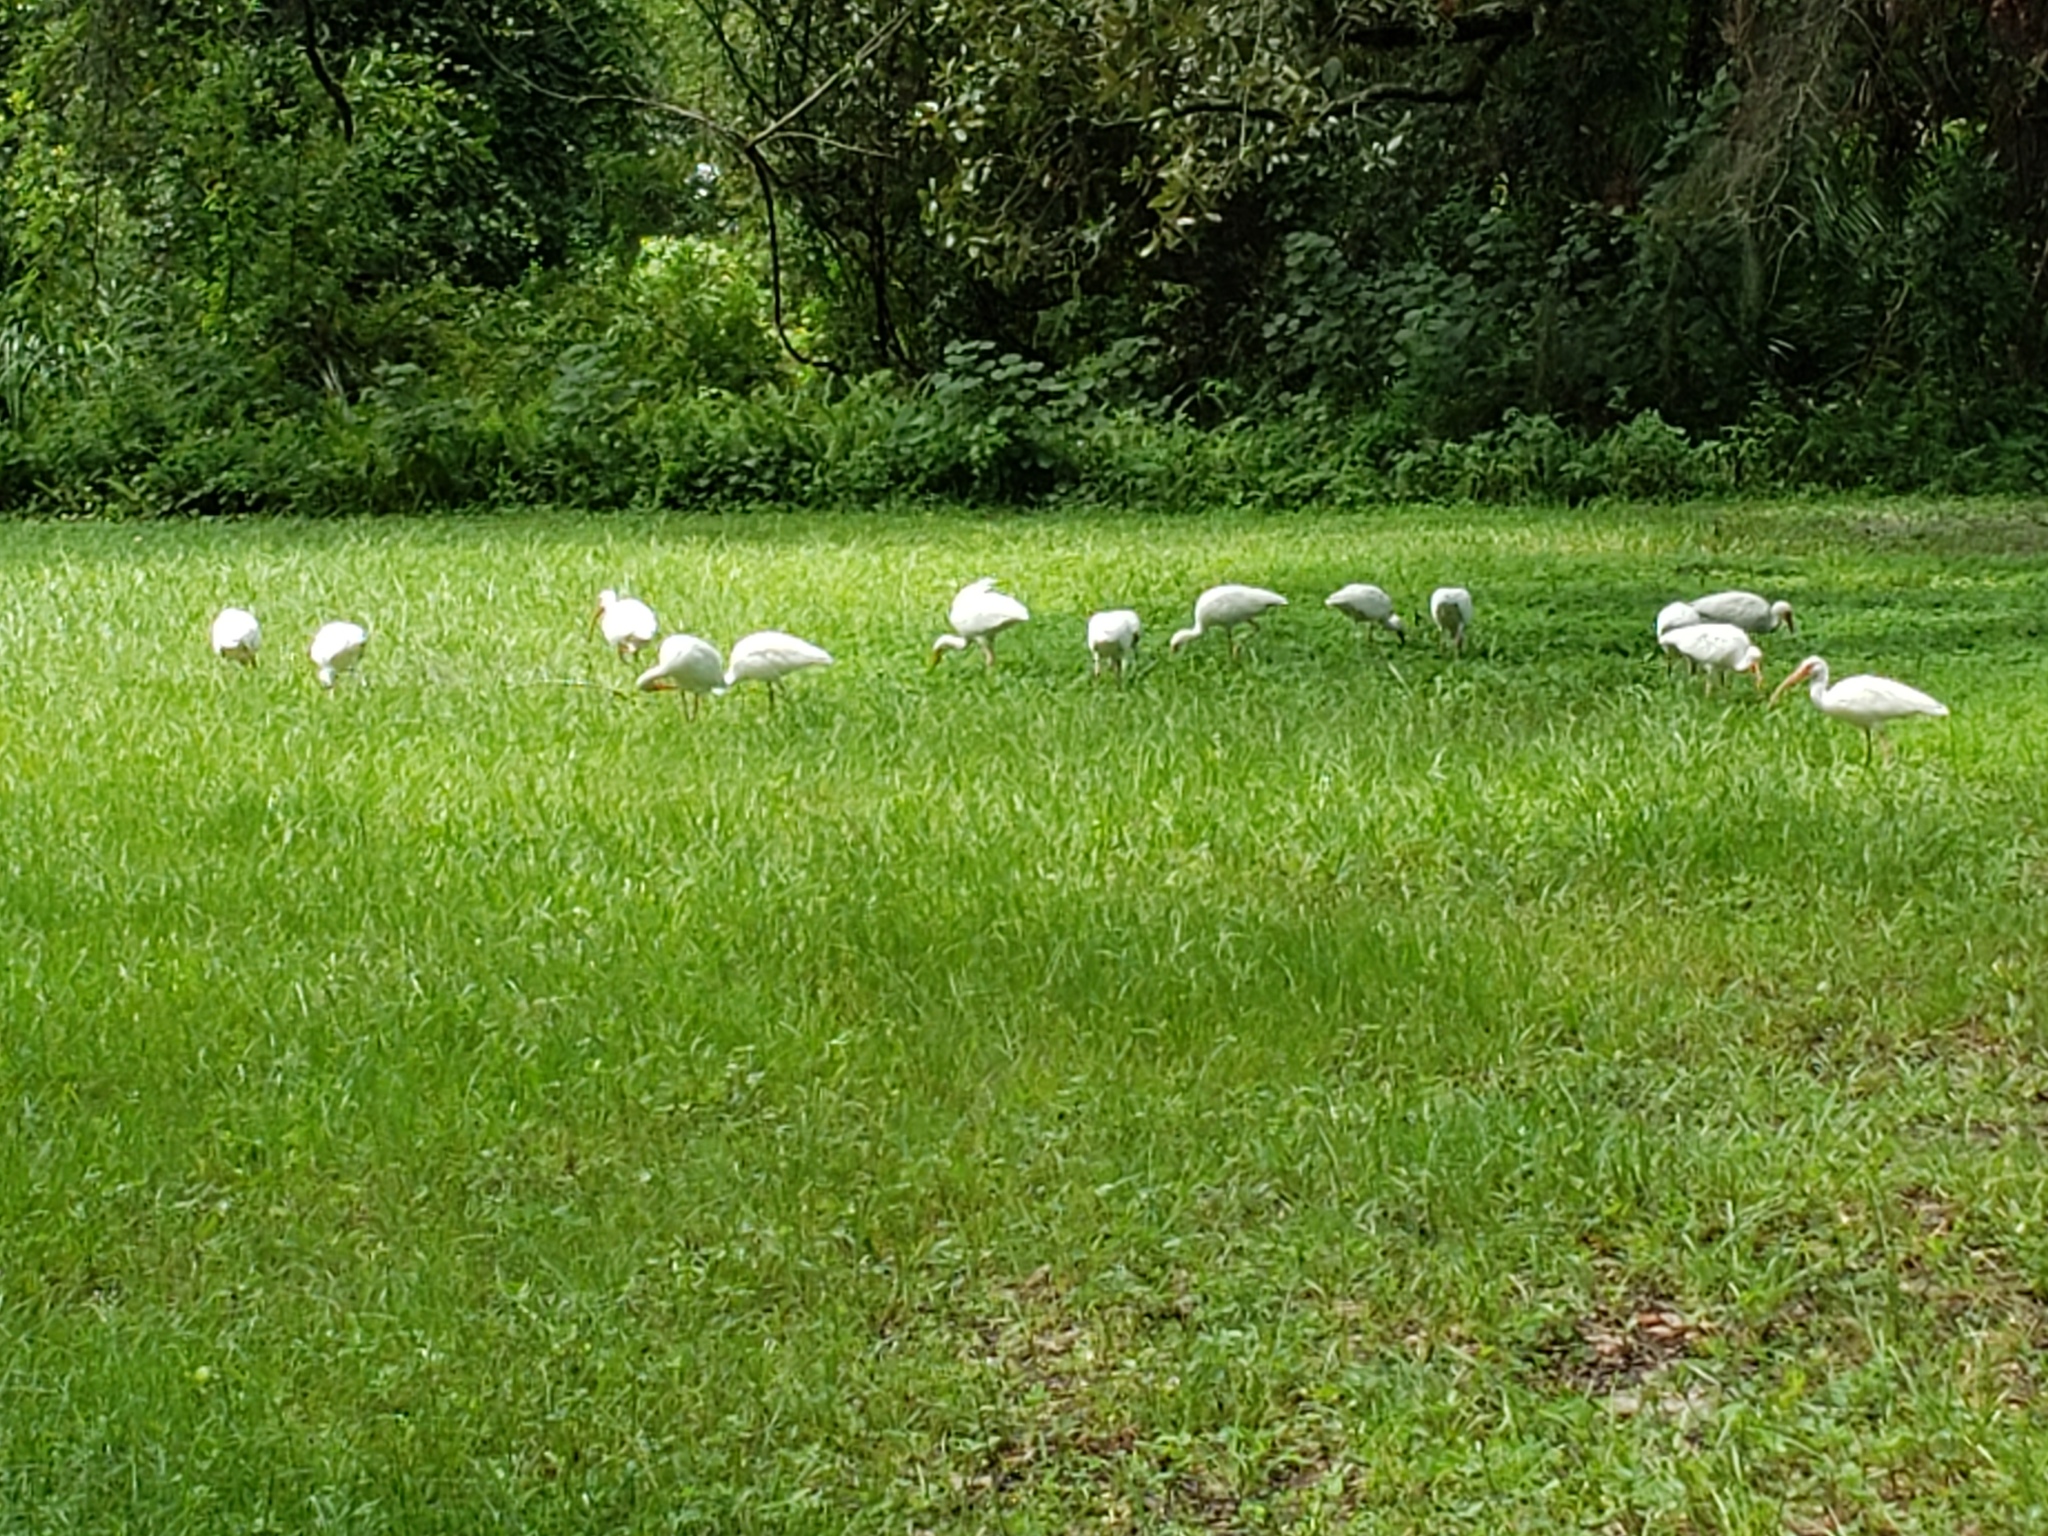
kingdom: Animalia
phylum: Chordata
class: Aves
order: Pelecaniformes
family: Threskiornithidae
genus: Eudocimus
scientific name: Eudocimus albus
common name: White ibis
